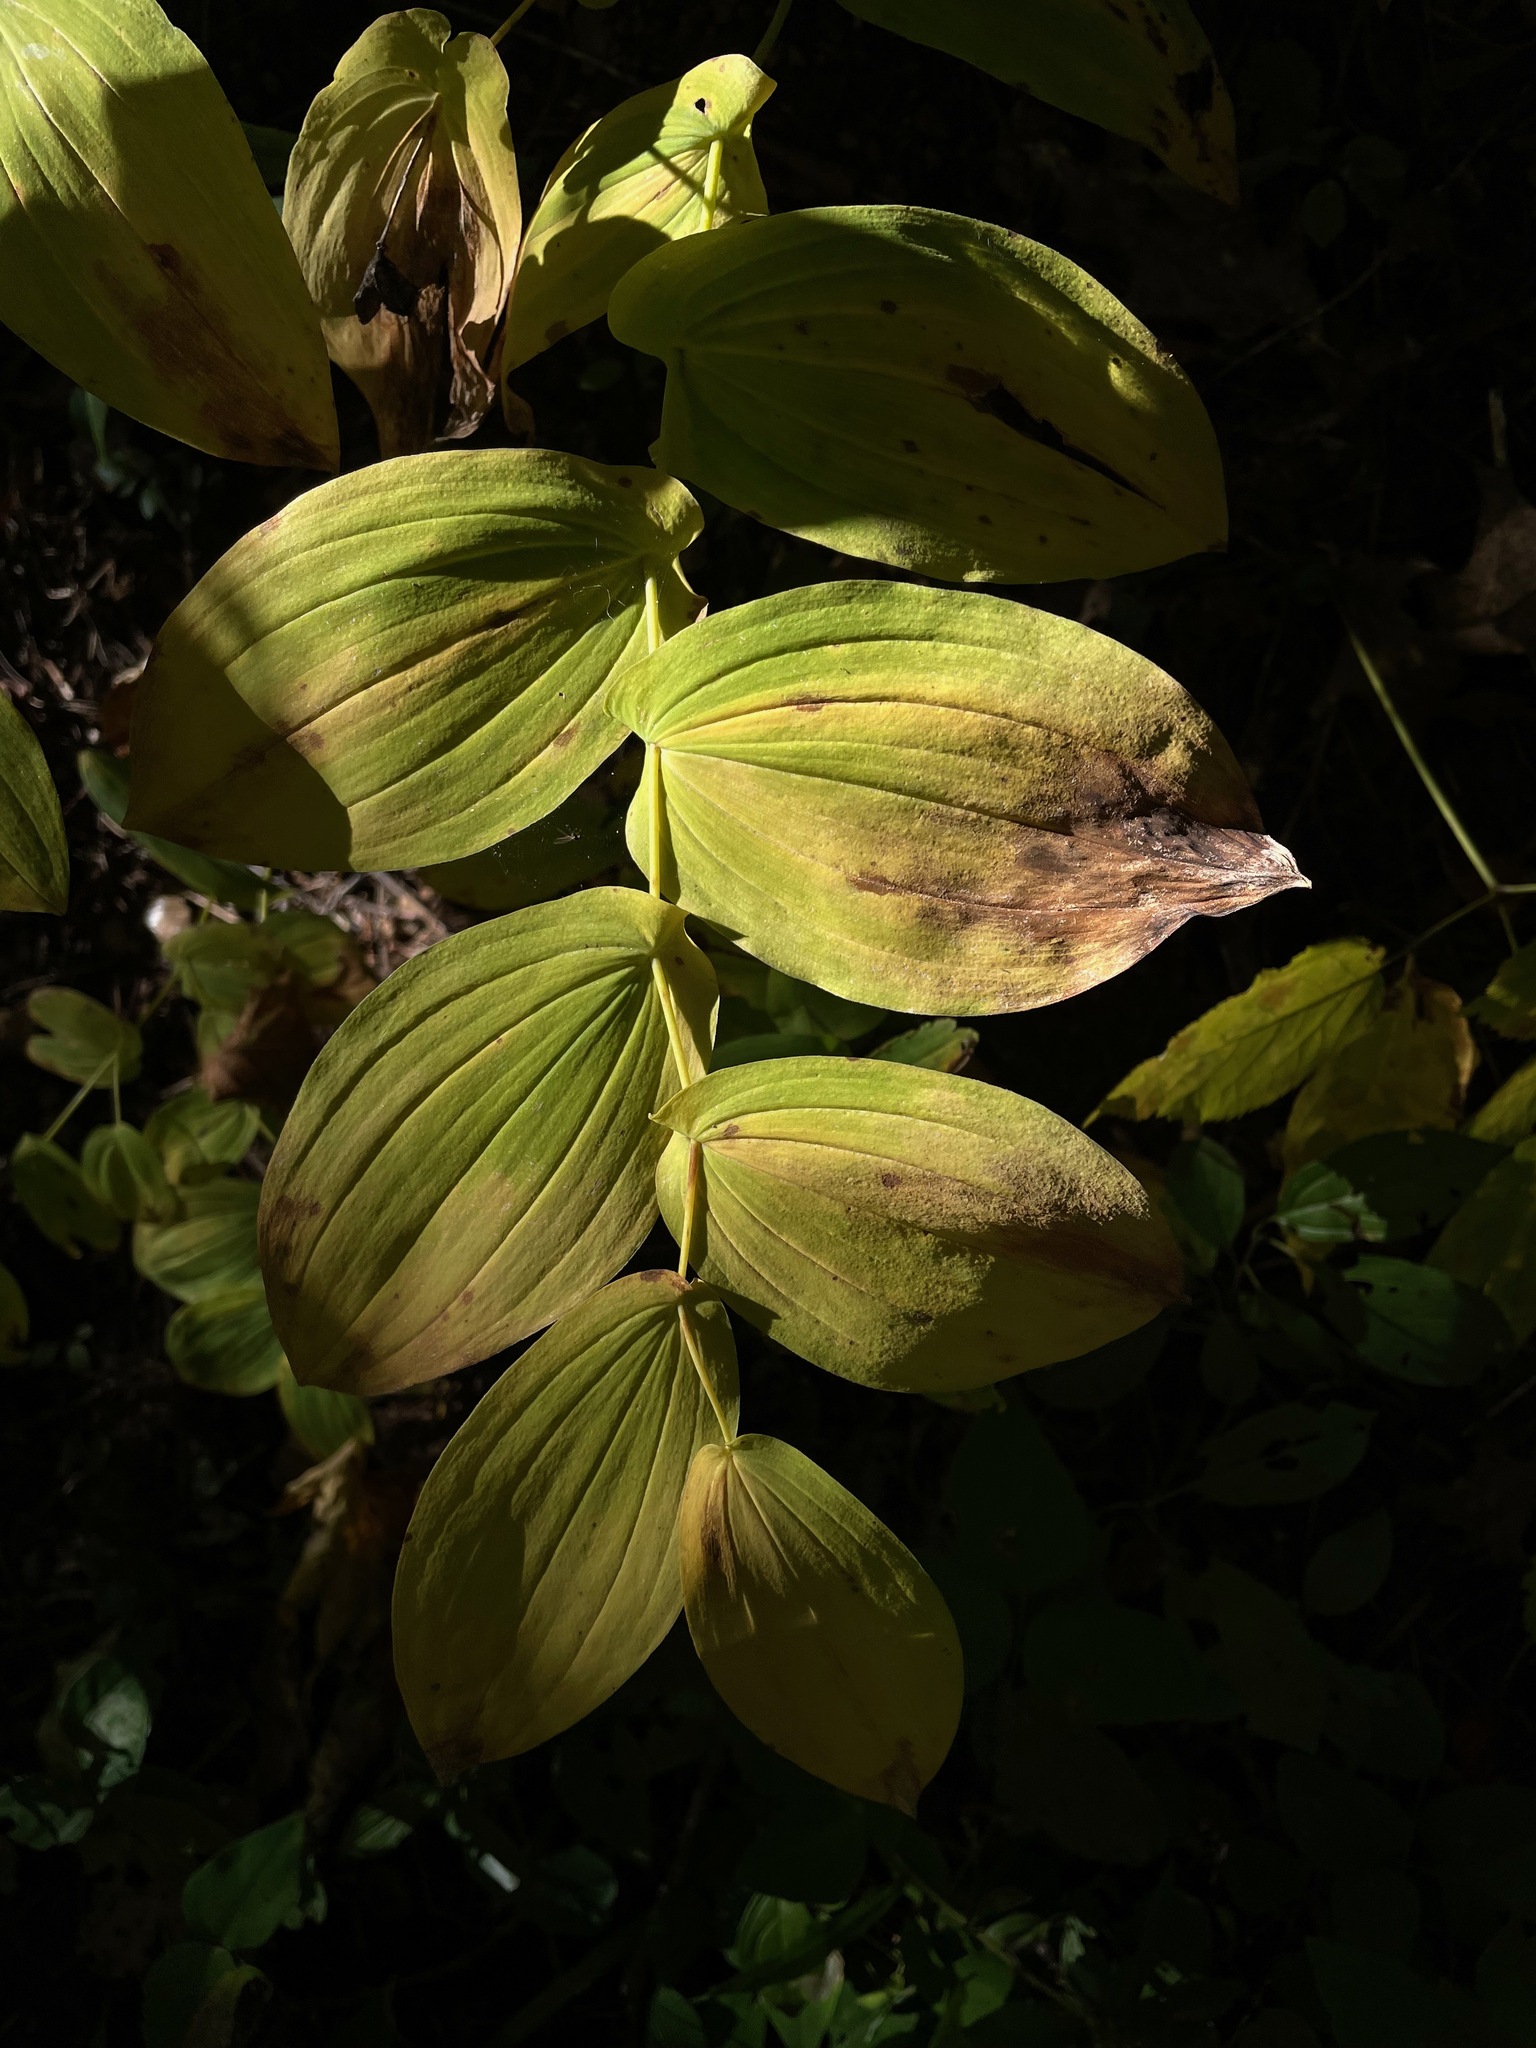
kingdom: Plantae
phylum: Tracheophyta
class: Liliopsida
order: Liliales
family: Colchicaceae
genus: Uvularia
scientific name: Uvularia grandiflora
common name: Bellwort
